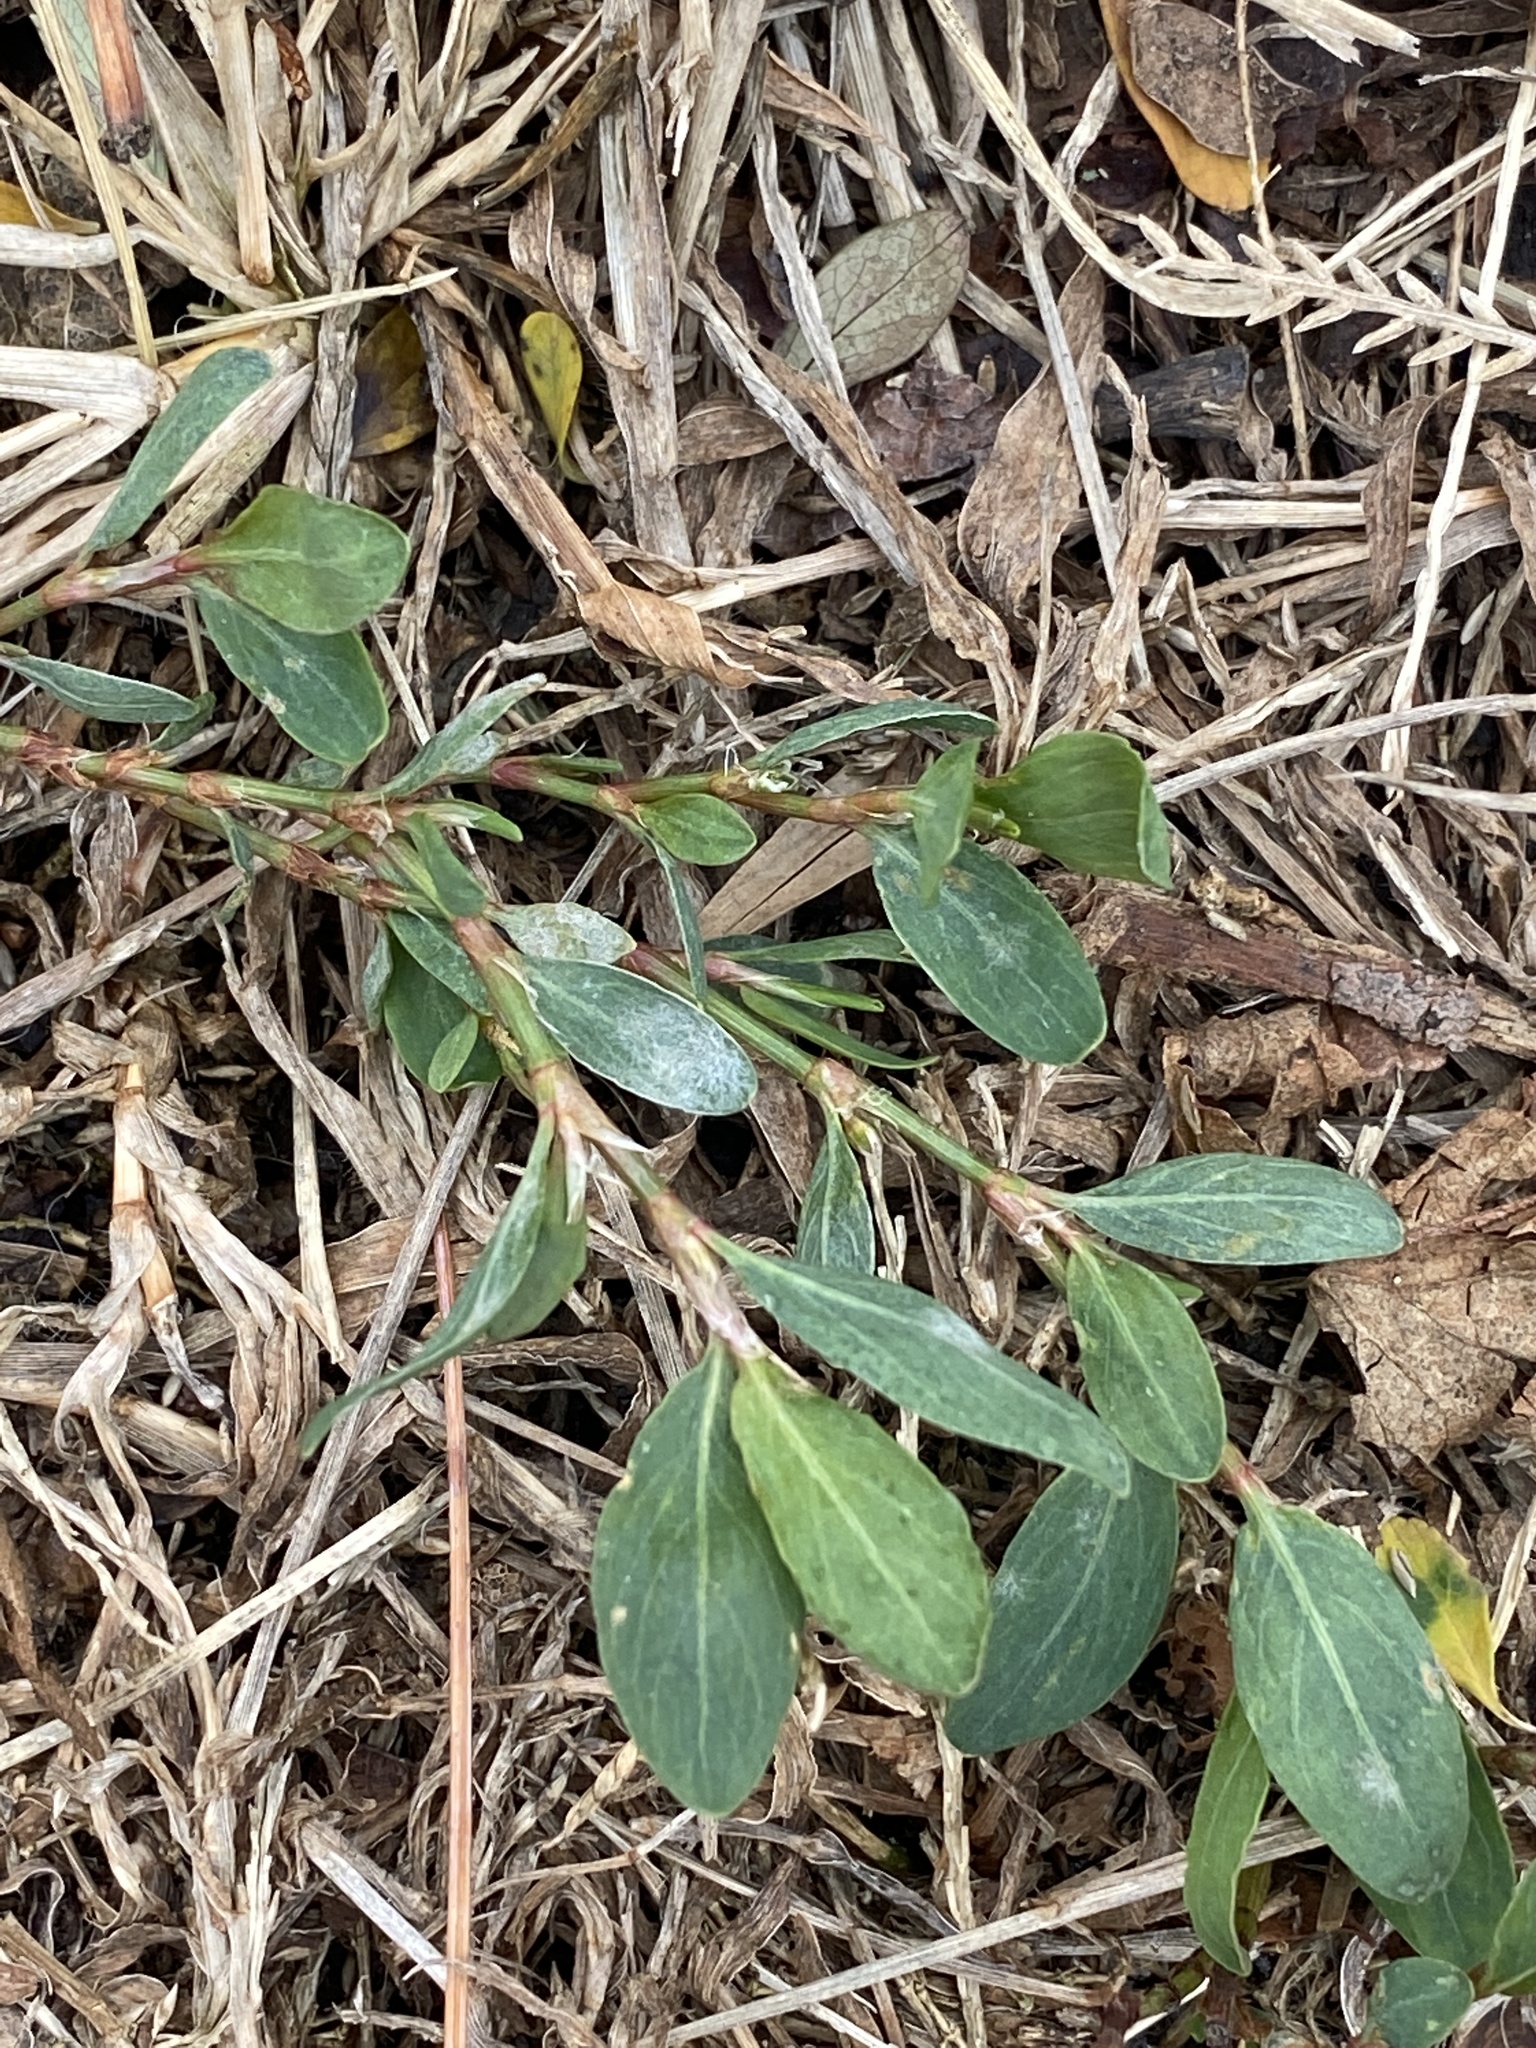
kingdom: Plantae
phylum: Tracheophyta
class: Magnoliopsida
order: Caryophyllales
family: Polygonaceae
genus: Polygonum
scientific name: Polygonum aviculare
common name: Prostrate knotweed
